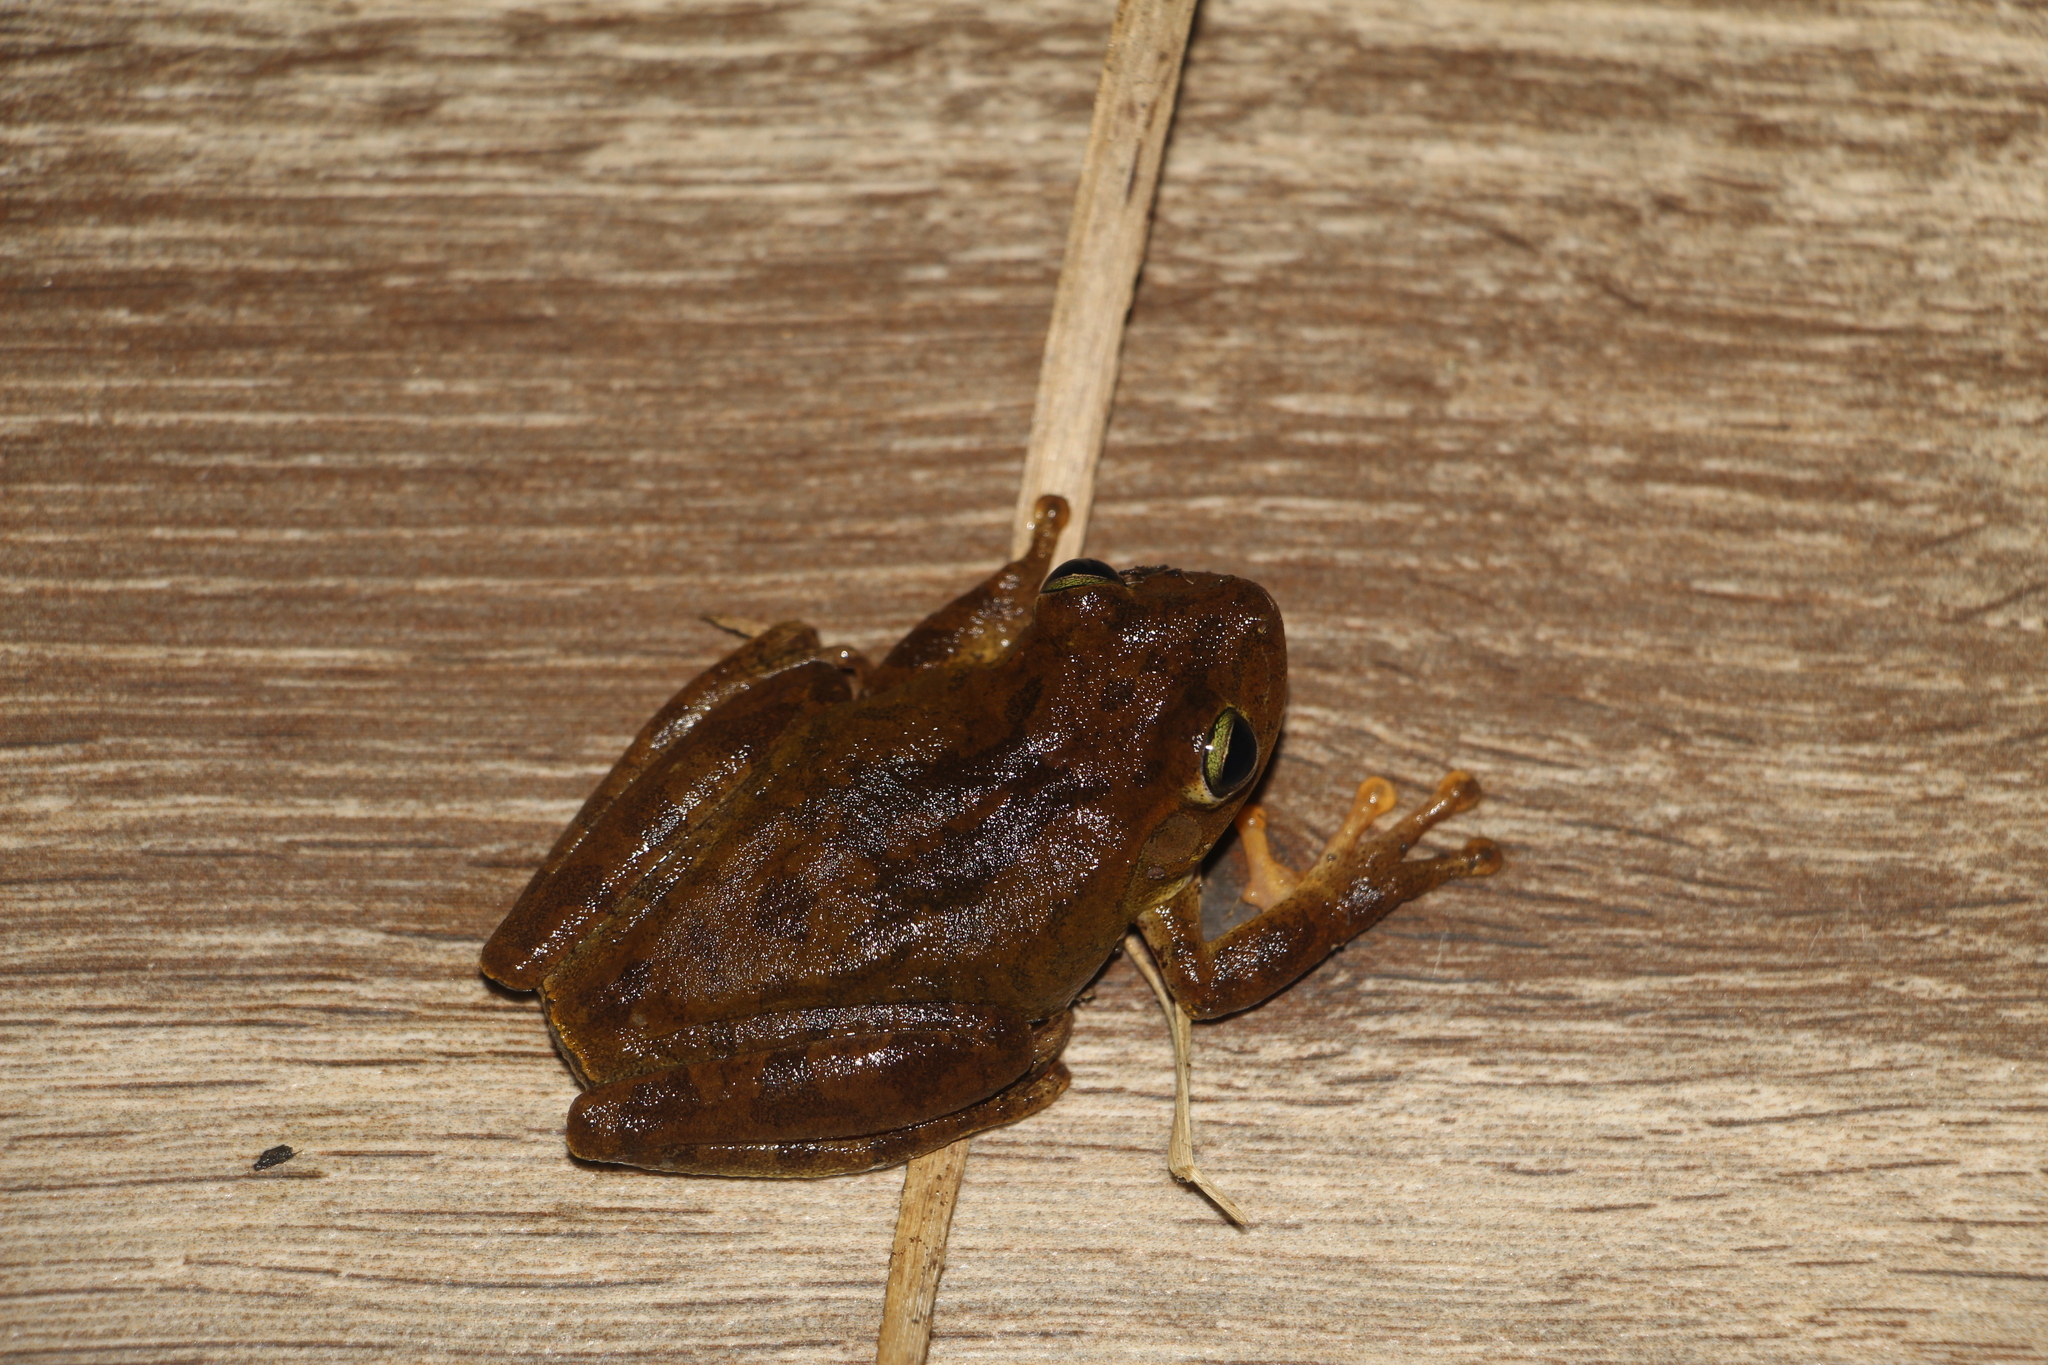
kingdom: Animalia
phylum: Chordata
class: Amphibia
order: Anura
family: Hylidae
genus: Boana
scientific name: Boana pugnax
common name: Chirique-flusse treefrog
